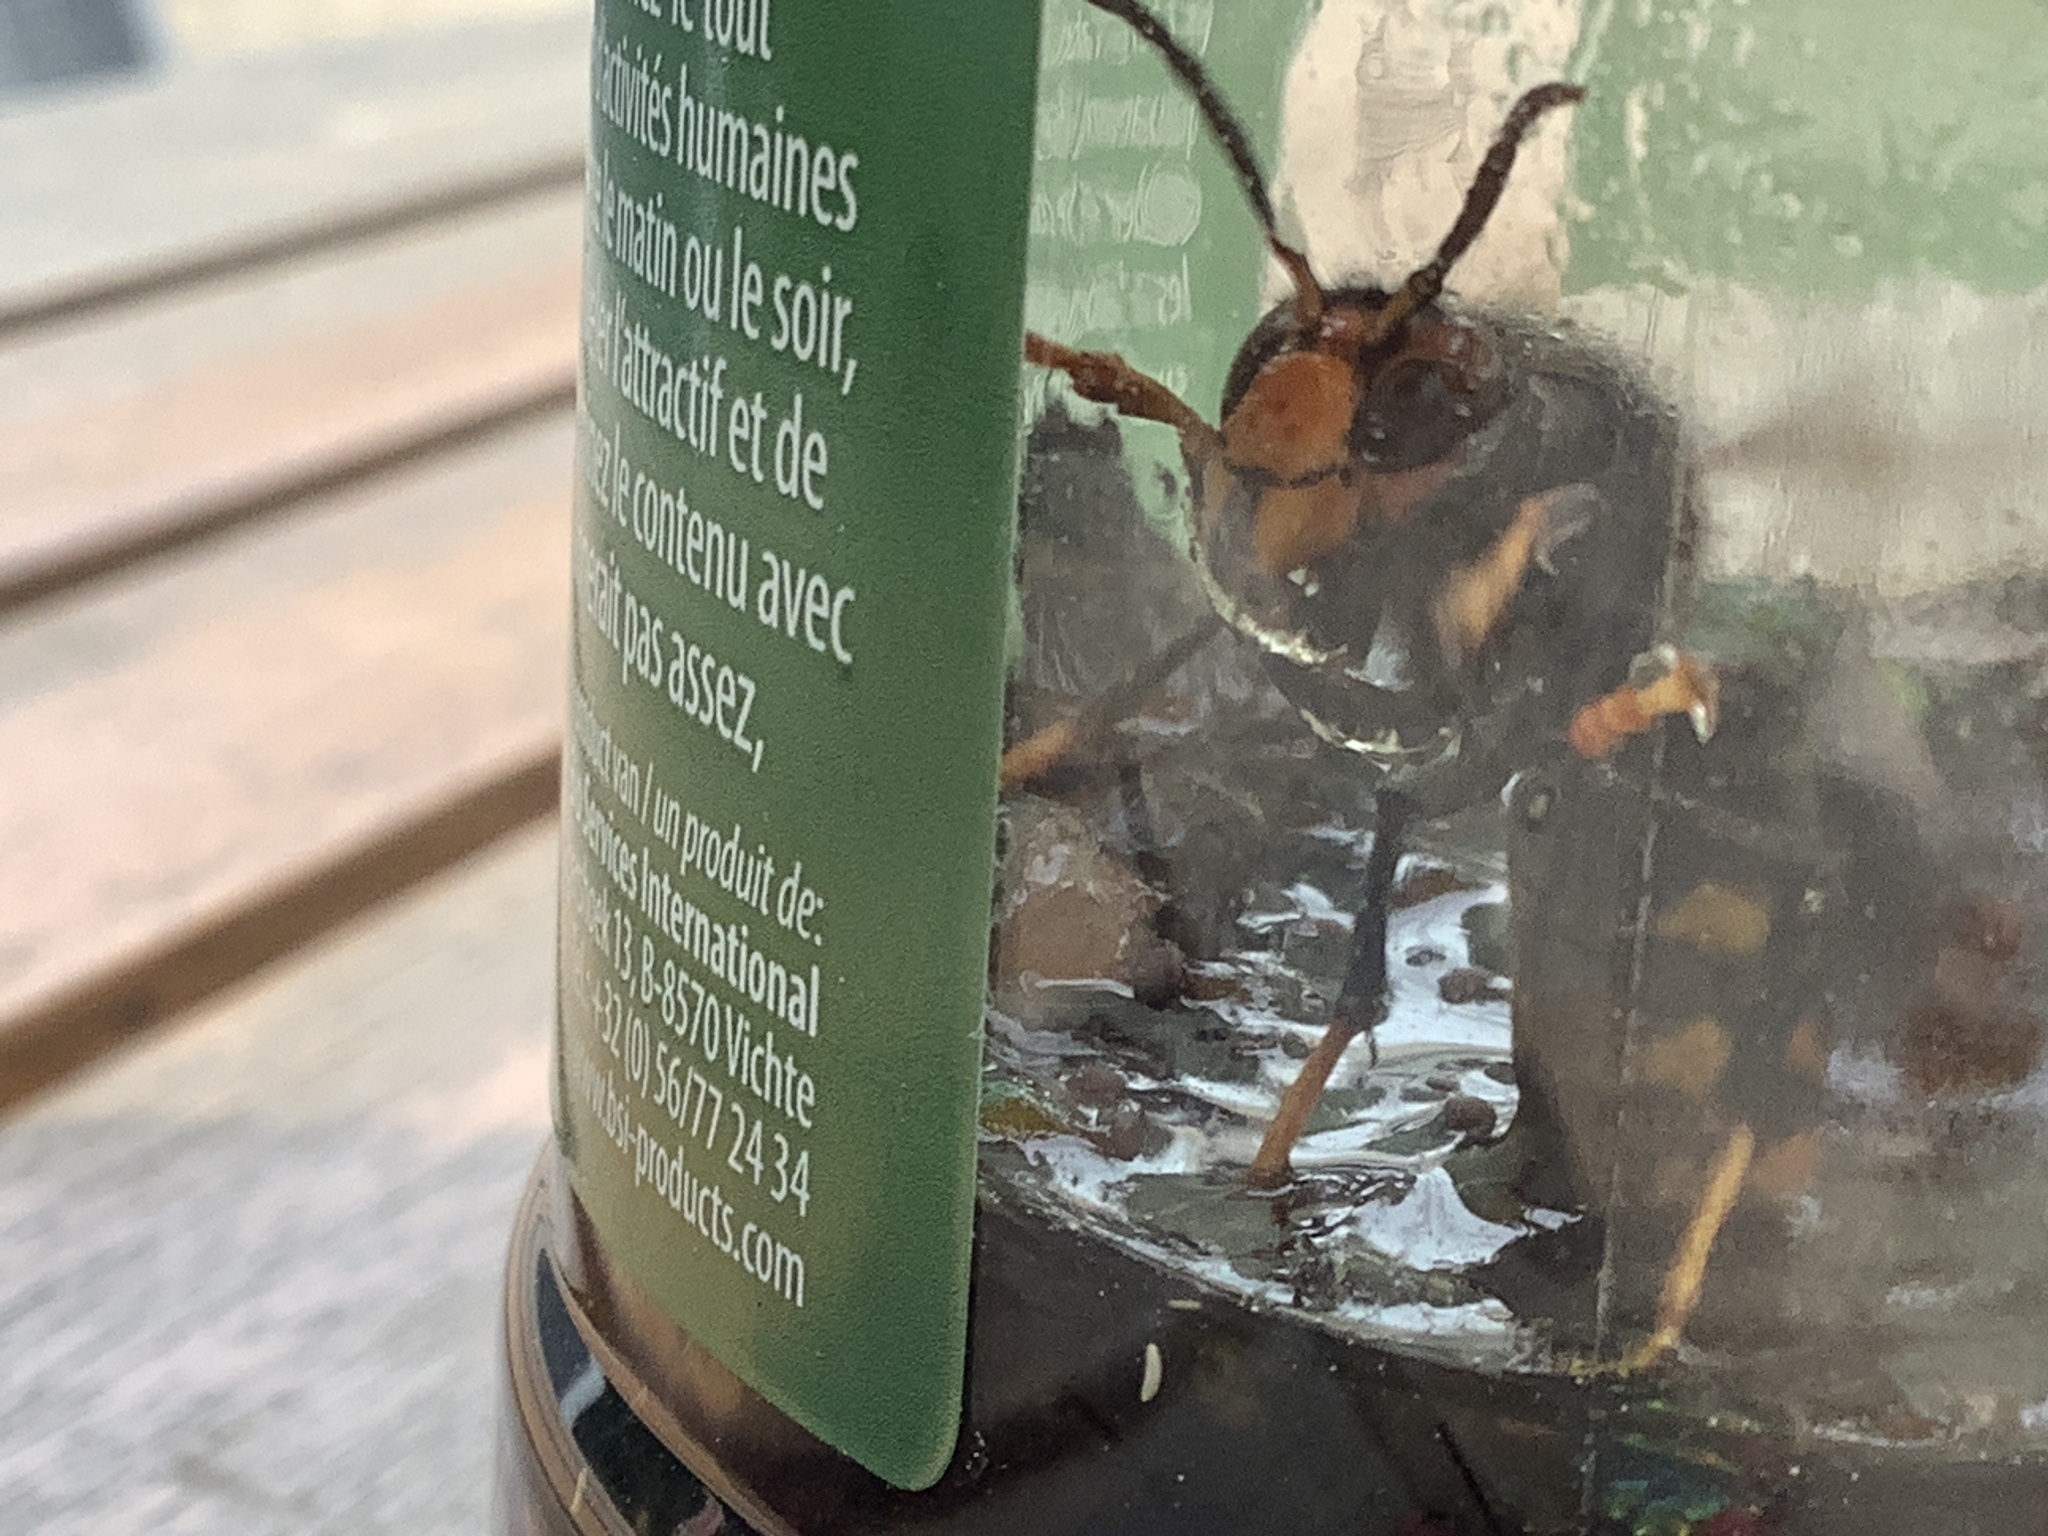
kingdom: Animalia
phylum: Arthropoda
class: Insecta
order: Hymenoptera
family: Vespidae
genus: Vespa
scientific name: Vespa velutina
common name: Asian hornet
